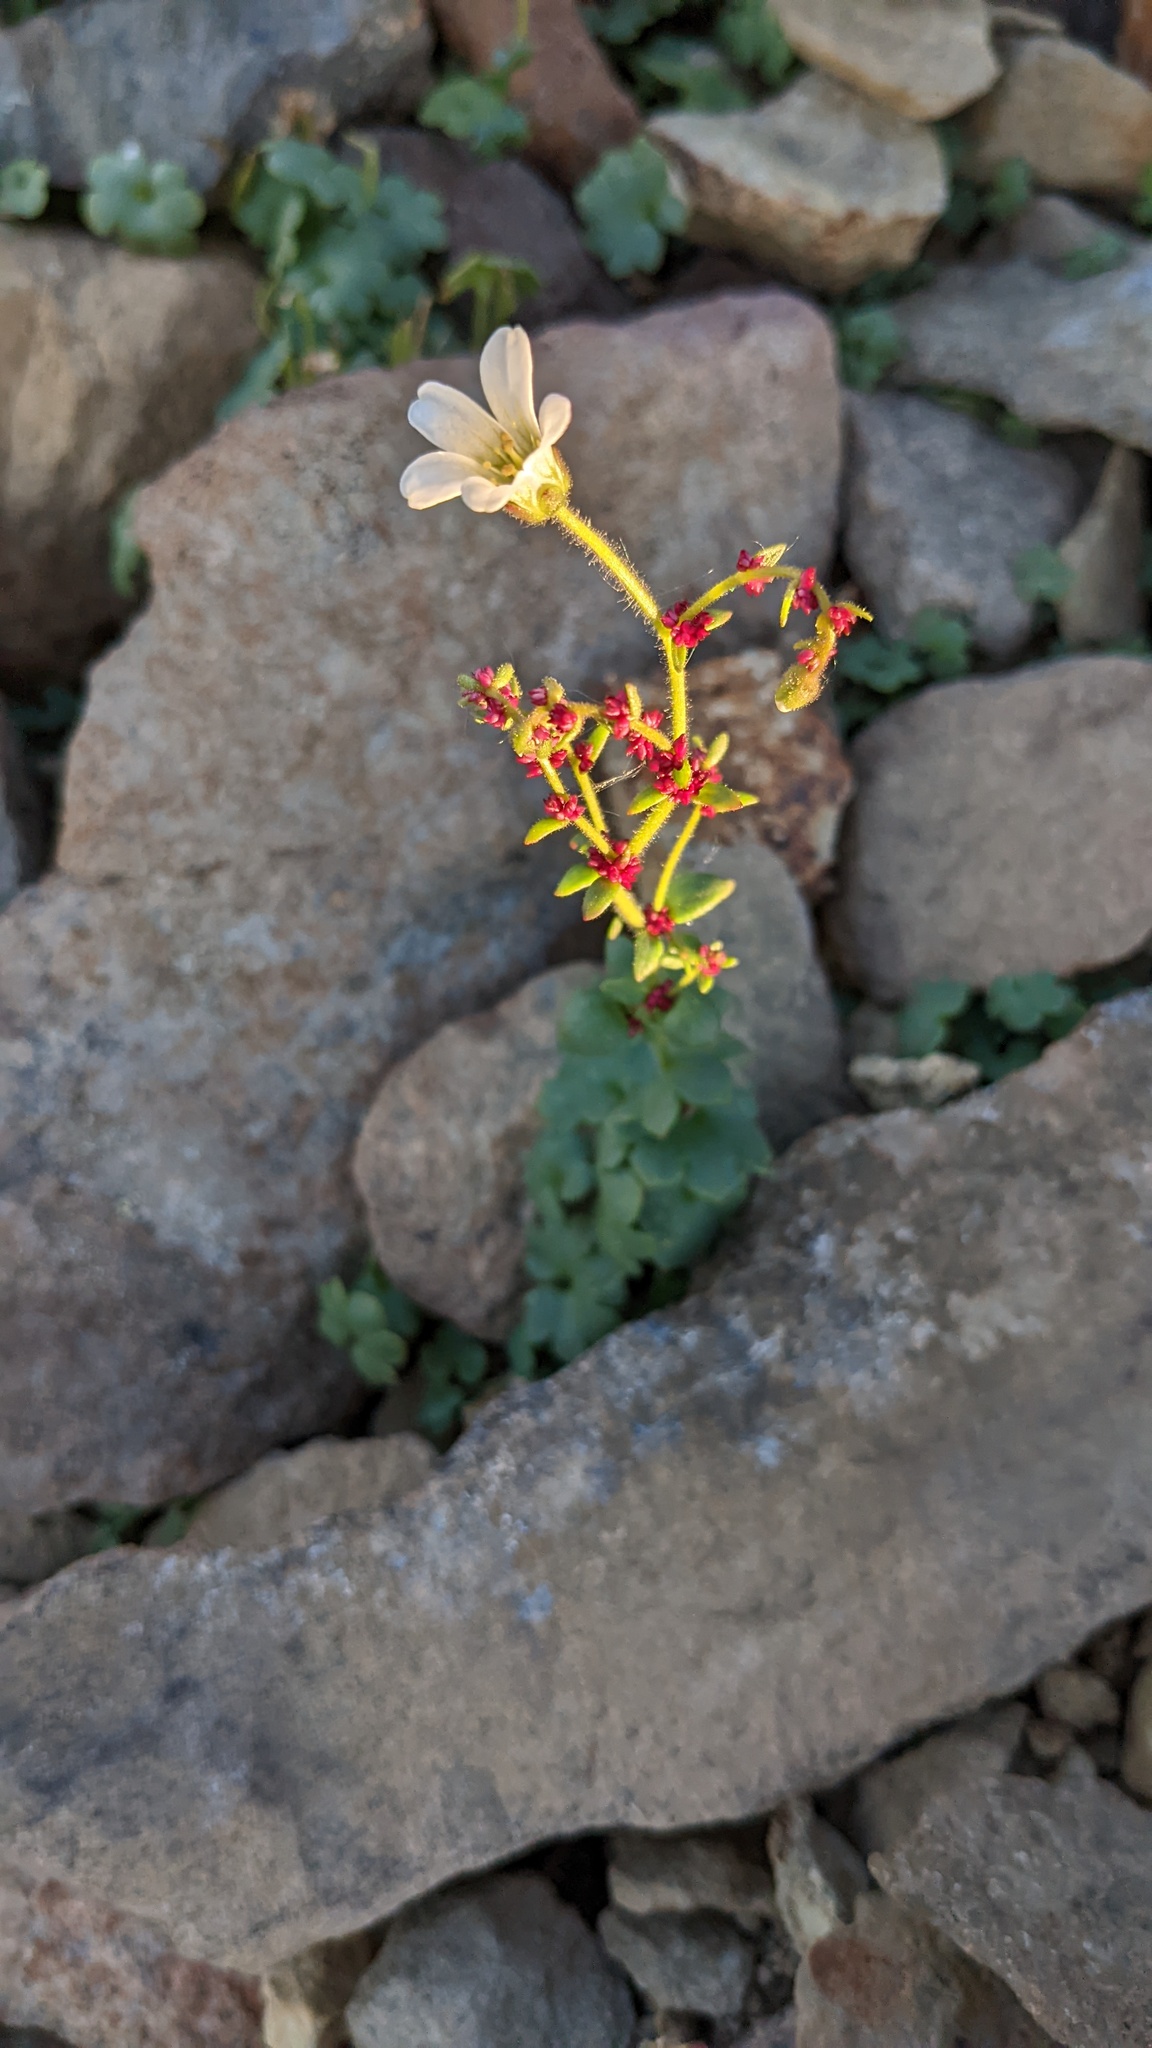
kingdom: Plantae
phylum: Tracheophyta
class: Magnoliopsida
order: Saxifragales
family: Saxifragaceae
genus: Saxifraga
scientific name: Saxifraga cernua
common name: Drooping saxifrage
